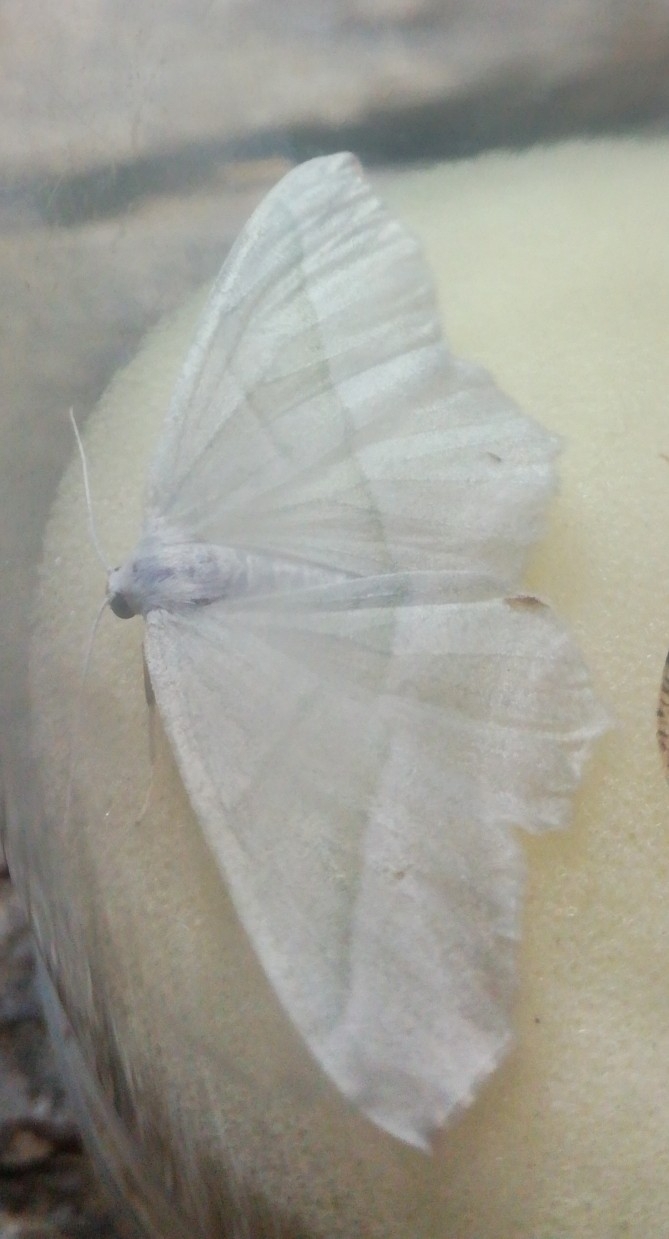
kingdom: Animalia
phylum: Arthropoda
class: Insecta
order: Lepidoptera
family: Geometridae
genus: Campaea
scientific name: Campaea margaritaria
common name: Light emerald
